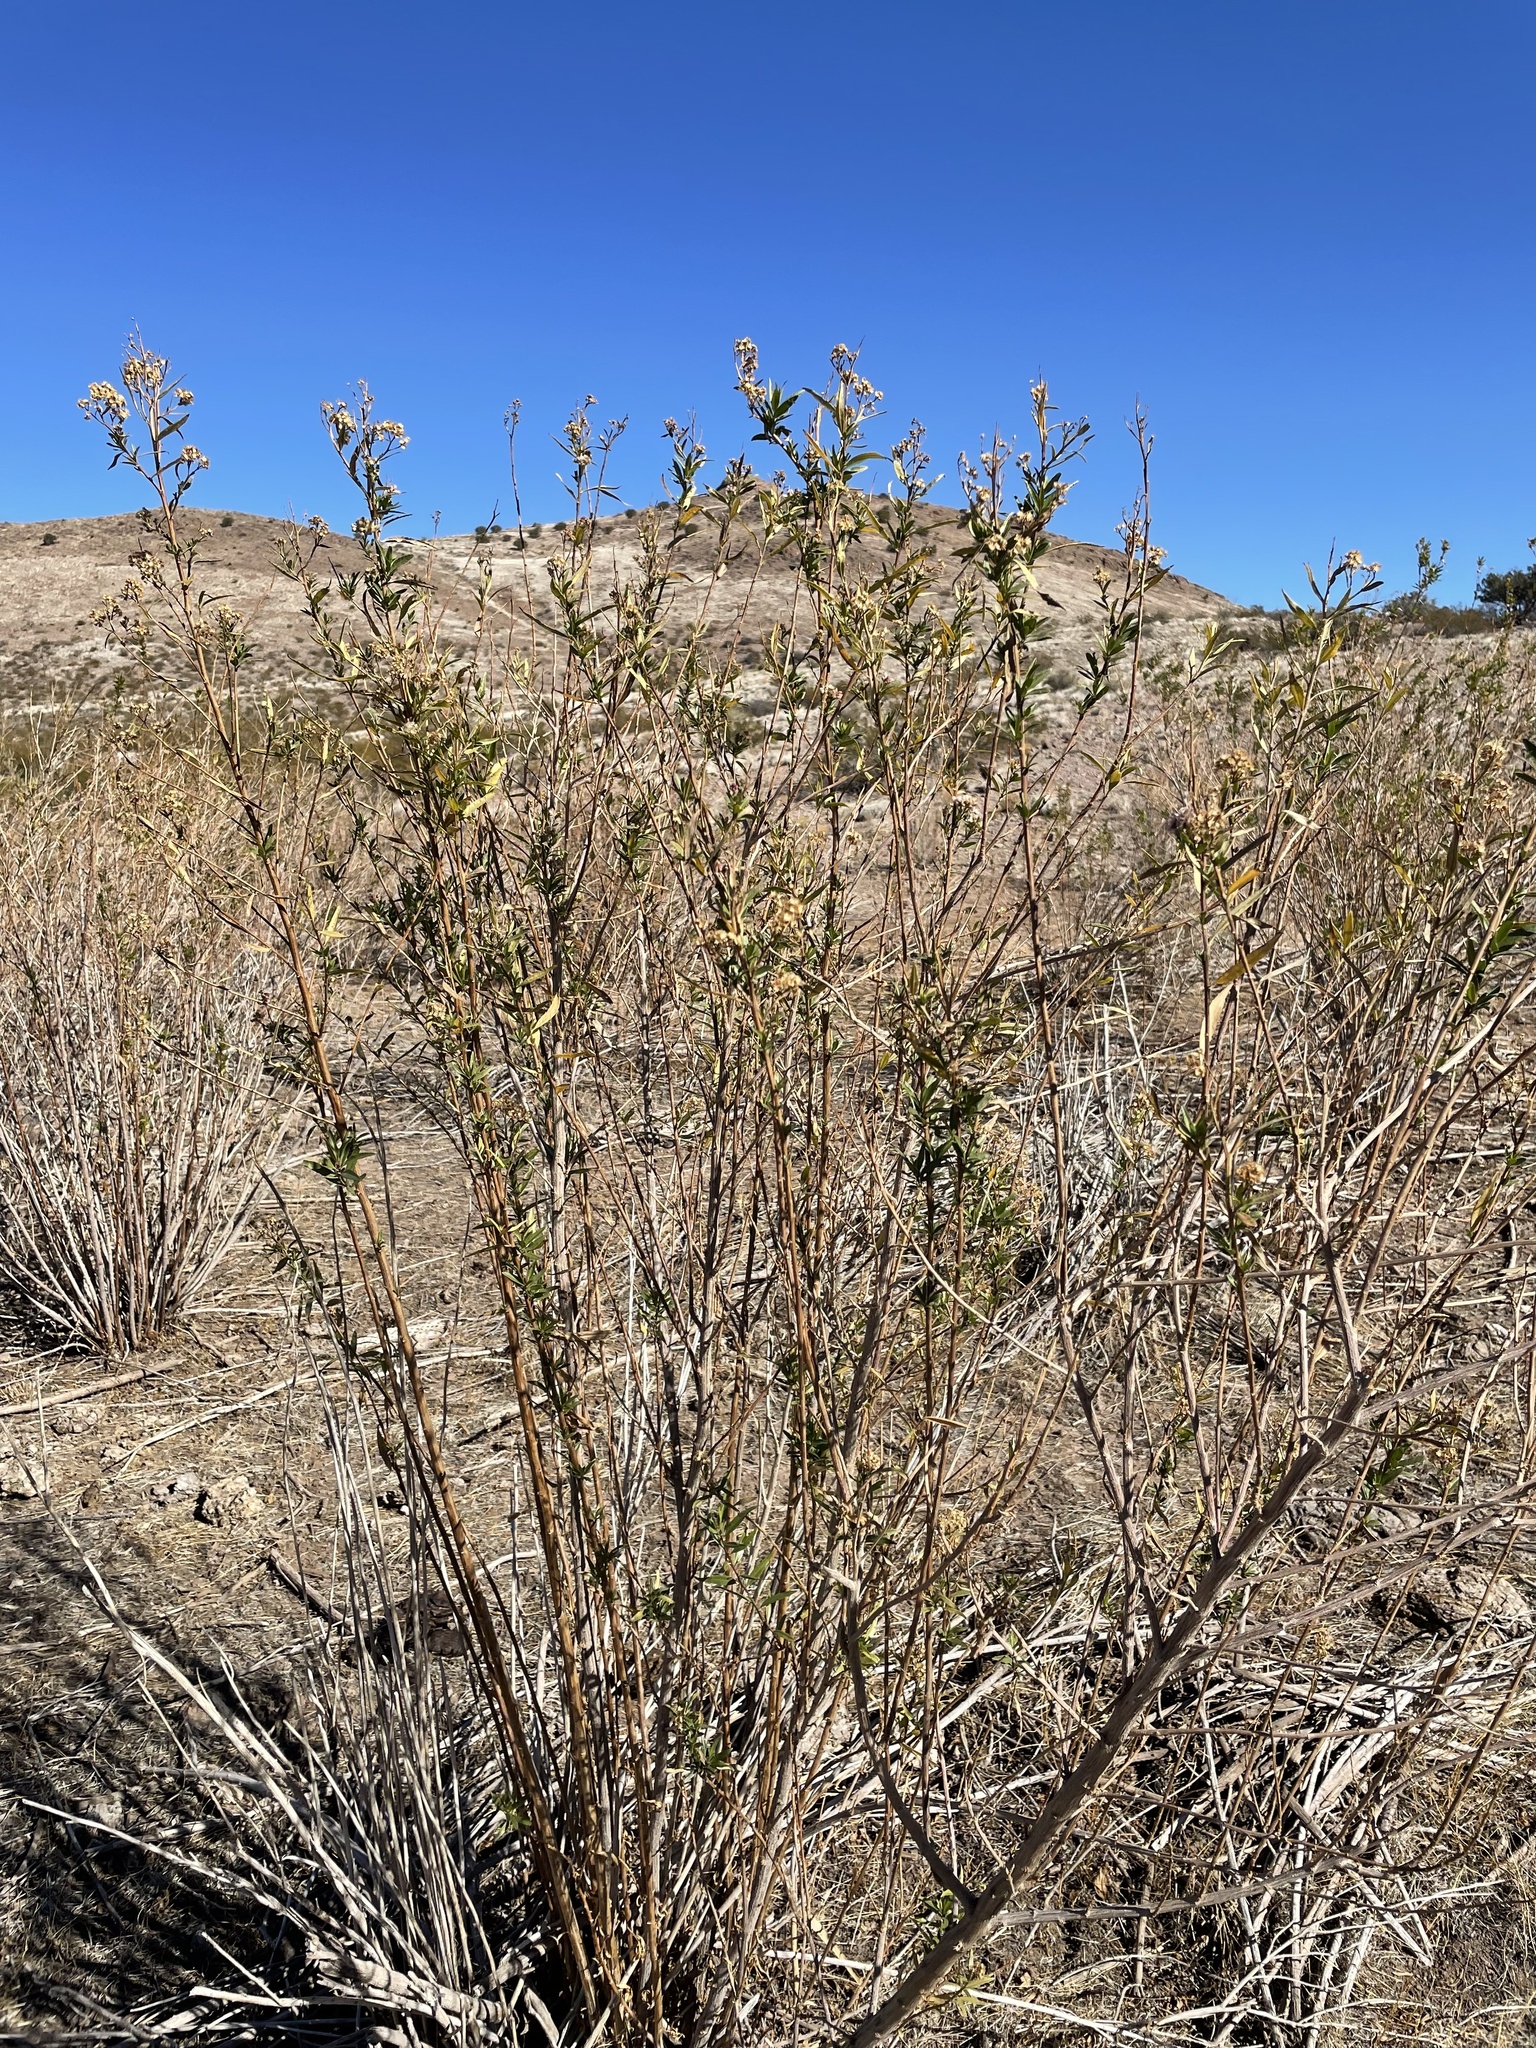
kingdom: Plantae
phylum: Tracheophyta
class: Magnoliopsida
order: Asterales
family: Asteraceae
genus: Baccharis
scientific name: Baccharis salicifolia
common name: Sticky baccharis
